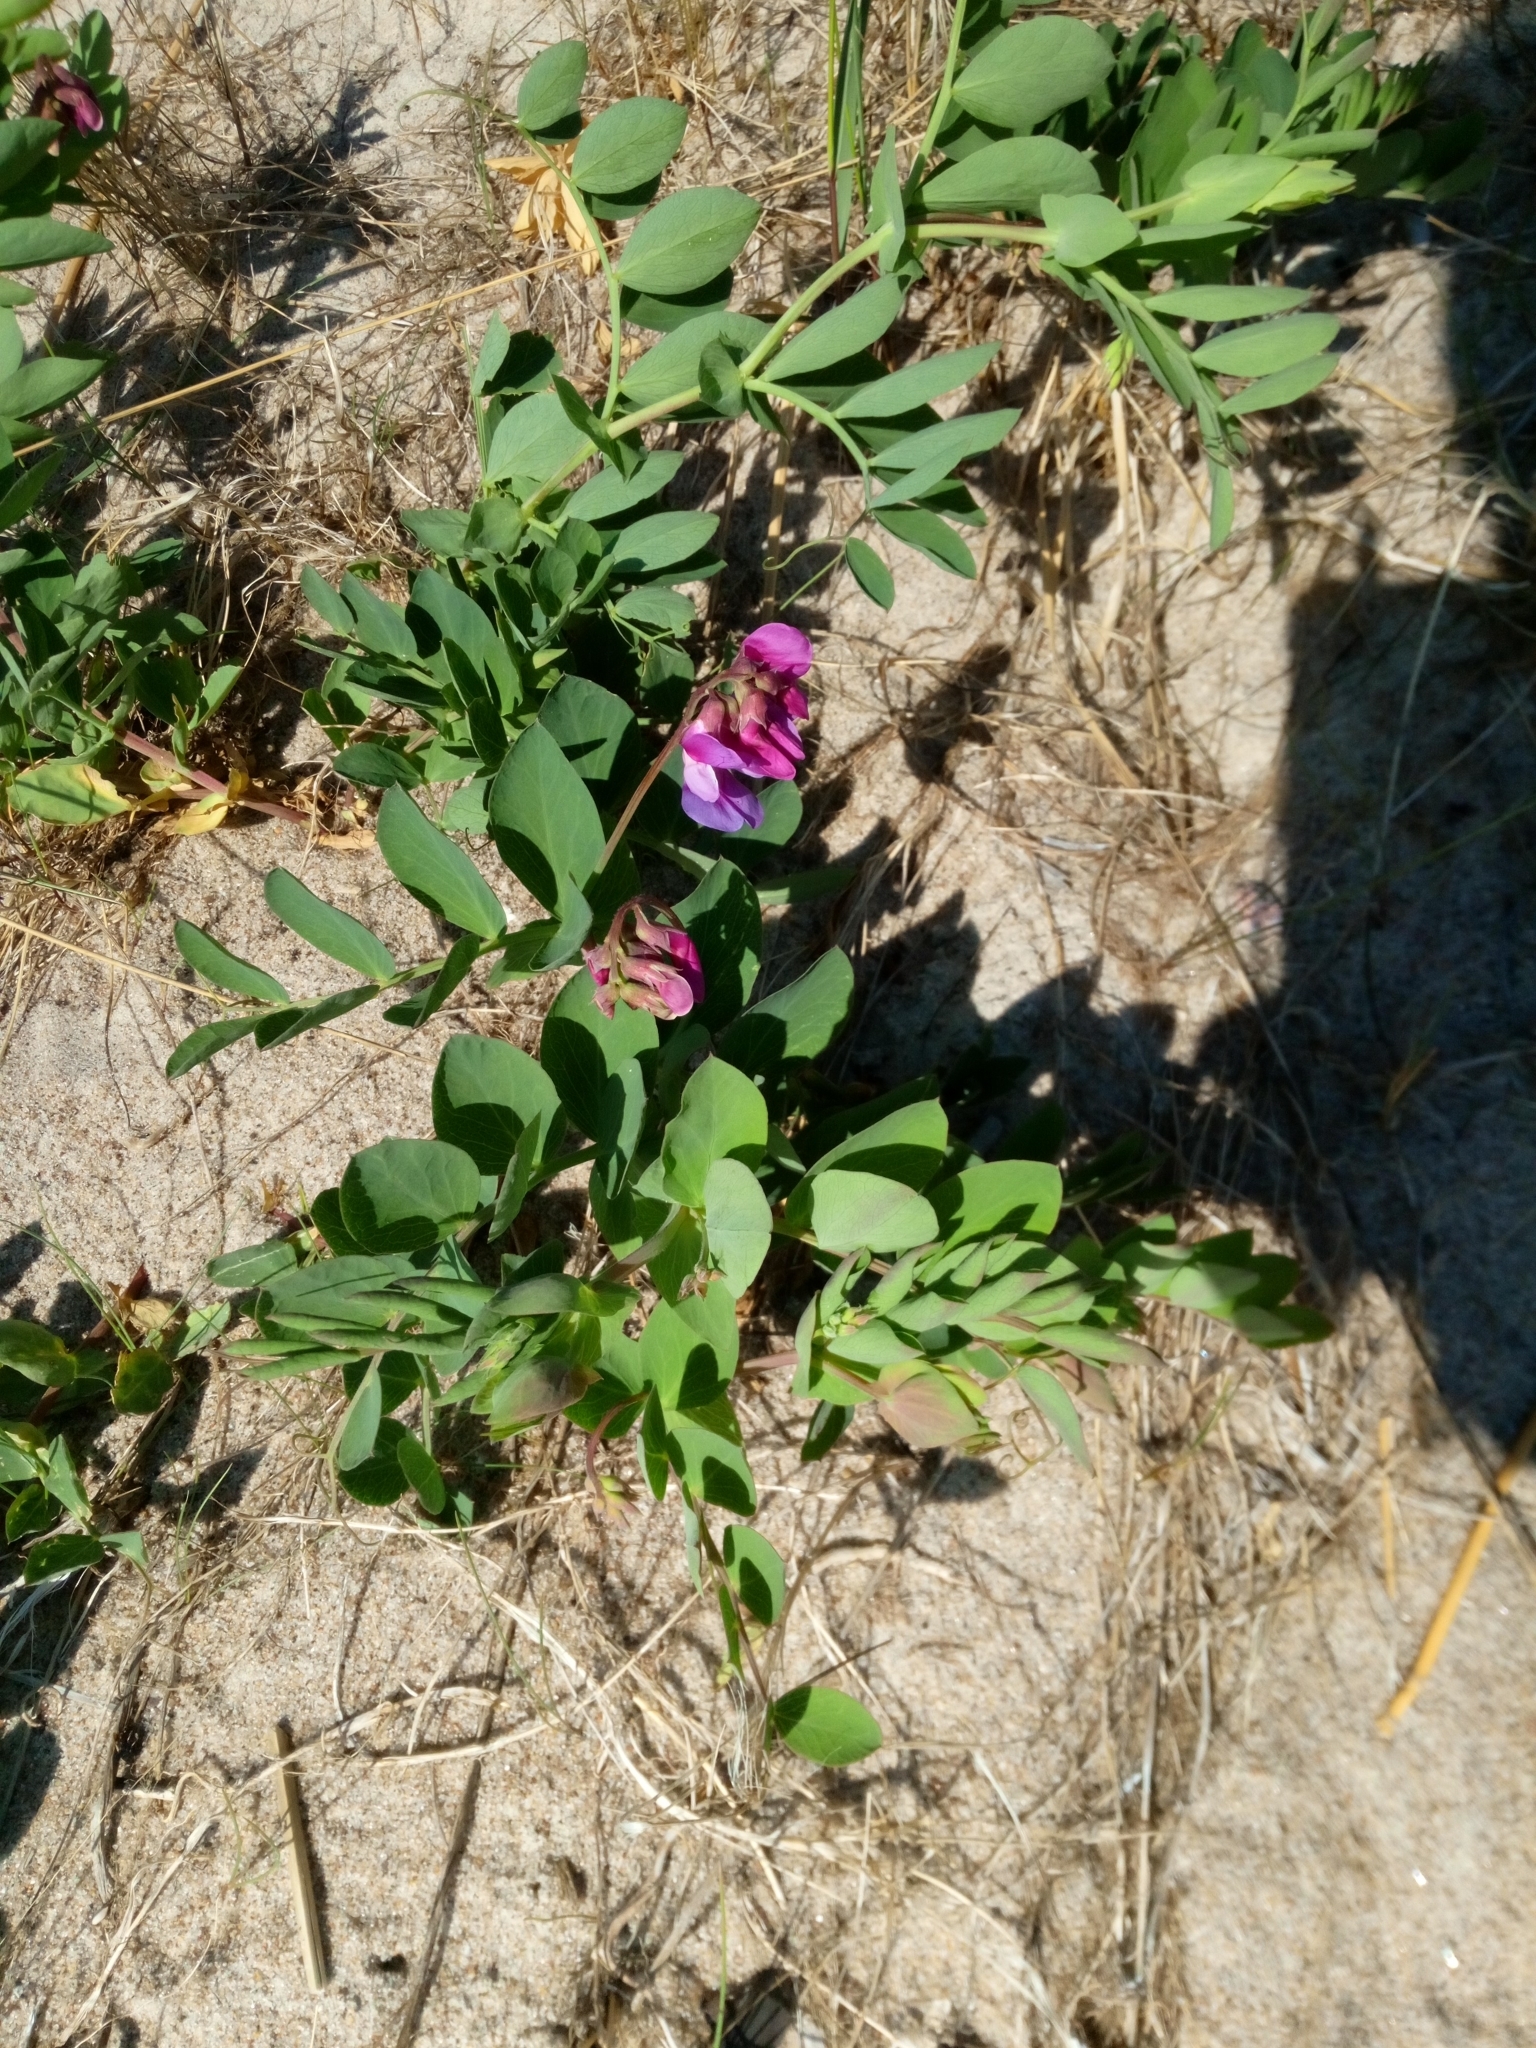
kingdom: Plantae
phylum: Tracheophyta
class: Magnoliopsida
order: Fabales
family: Fabaceae
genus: Lathyrus
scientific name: Lathyrus japonicus
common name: Sea pea
